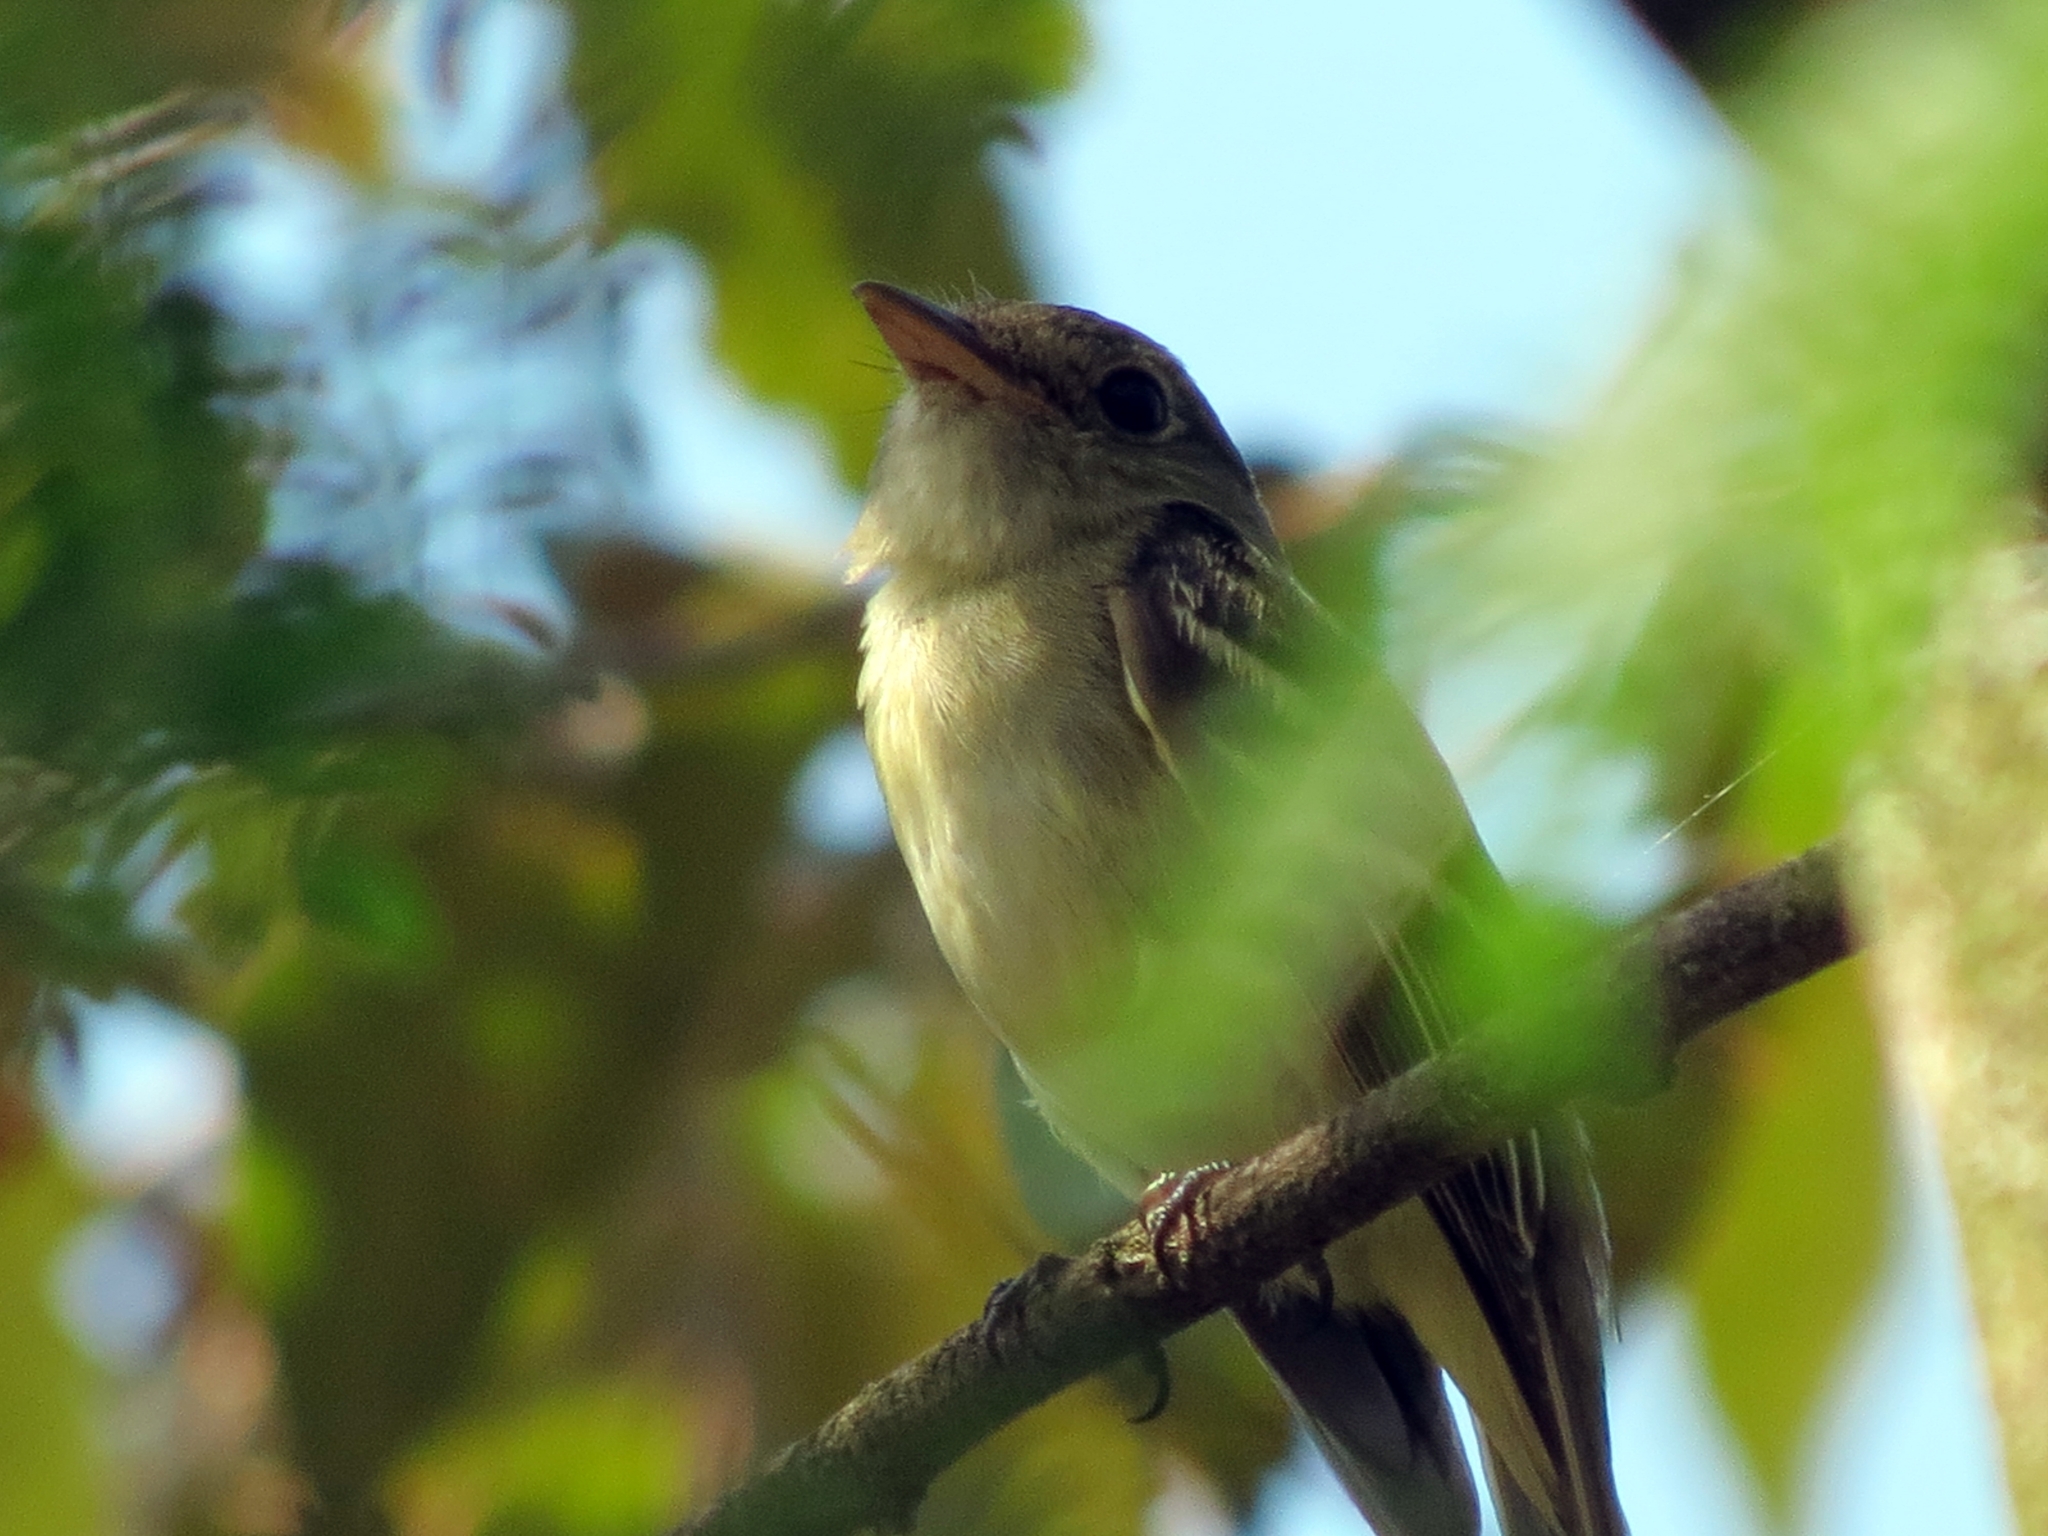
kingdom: Animalia
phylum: Chordata
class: Aves
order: Passeriformes
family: Tyrannidae
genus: Empidonax
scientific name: Empidonax virescens
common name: Acadian flycatcher
